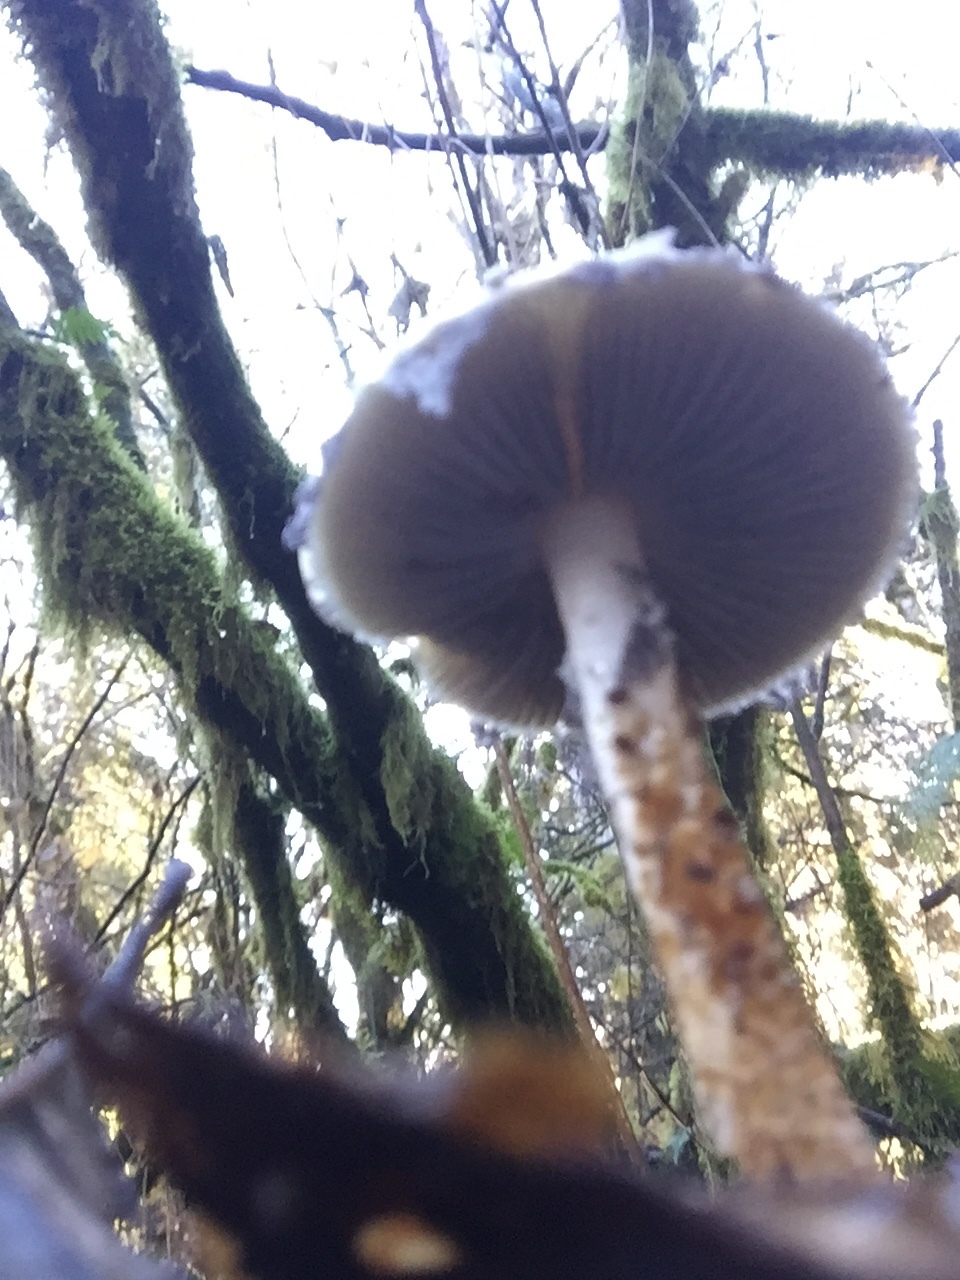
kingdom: Fungi
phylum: Basidiomycota
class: Agaricomycetes
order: Agaricales
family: Strophariaceae
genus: Stropharia
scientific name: Stropharia ambigua
